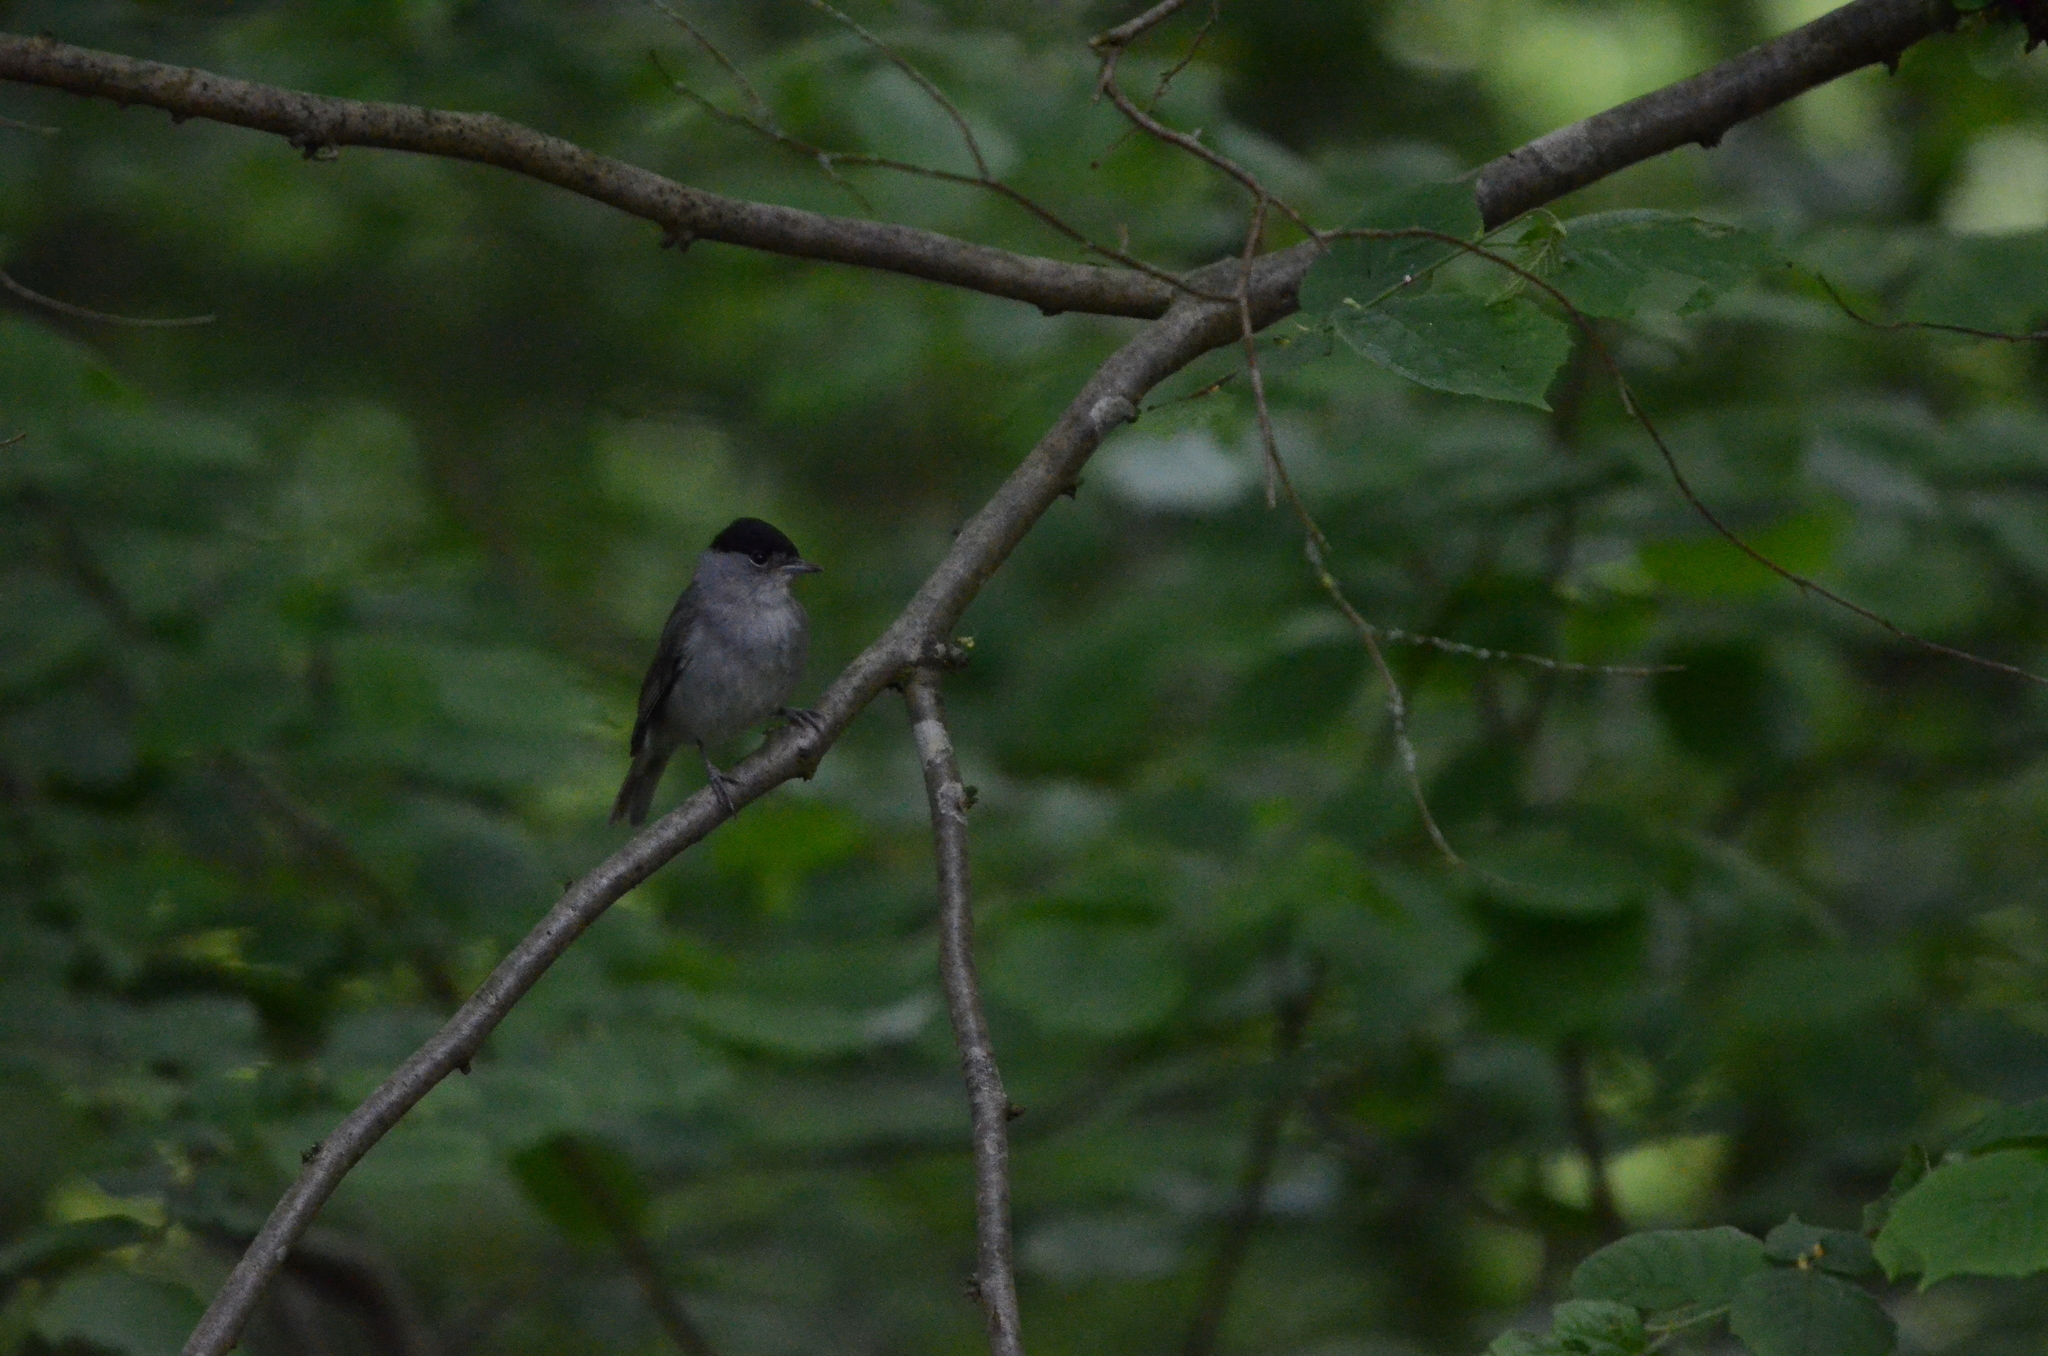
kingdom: Animalia
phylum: Chordata
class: Aves
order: Passeriformes
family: Sylviidae
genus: Sylvia
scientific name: Sylvia atricapilla
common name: Eurasian blackcap
